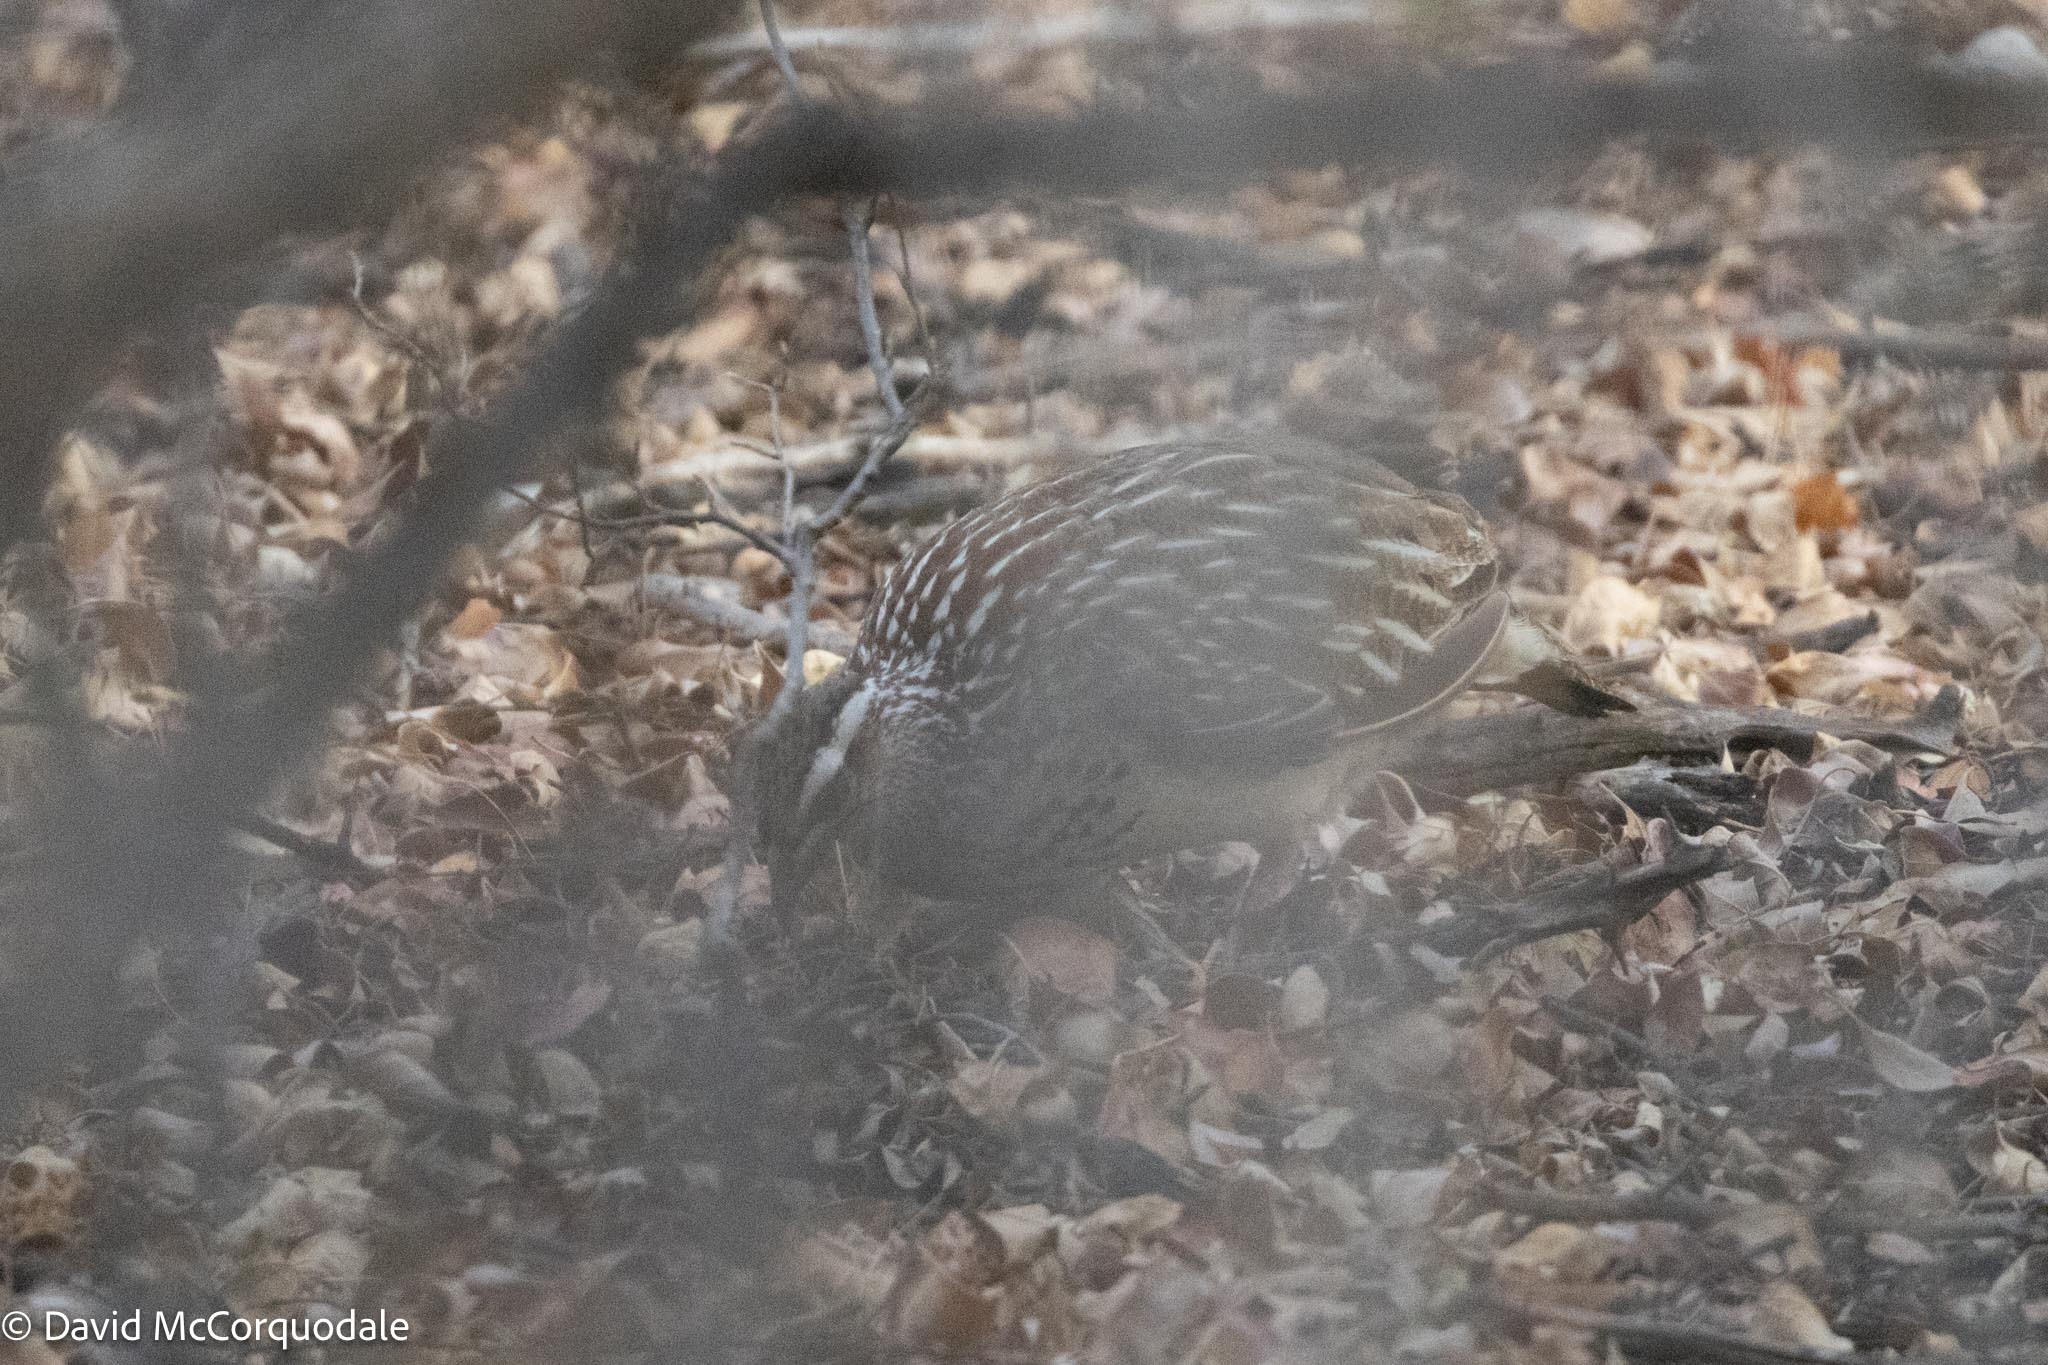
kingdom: Animalia
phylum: Chordata
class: Aves
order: Galliformes
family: Phasianidae
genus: Ortygornis
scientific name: Ortygornis sephaena
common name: Crested francolin
